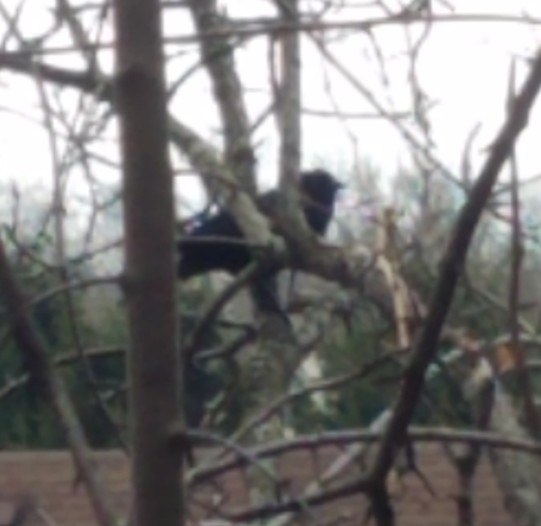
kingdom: Animalia
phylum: Chordata
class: Aves
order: Passeriformes
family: Icteridae
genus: Agelaius
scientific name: Agelaius phoeniceus
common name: Red-winged blackbird
